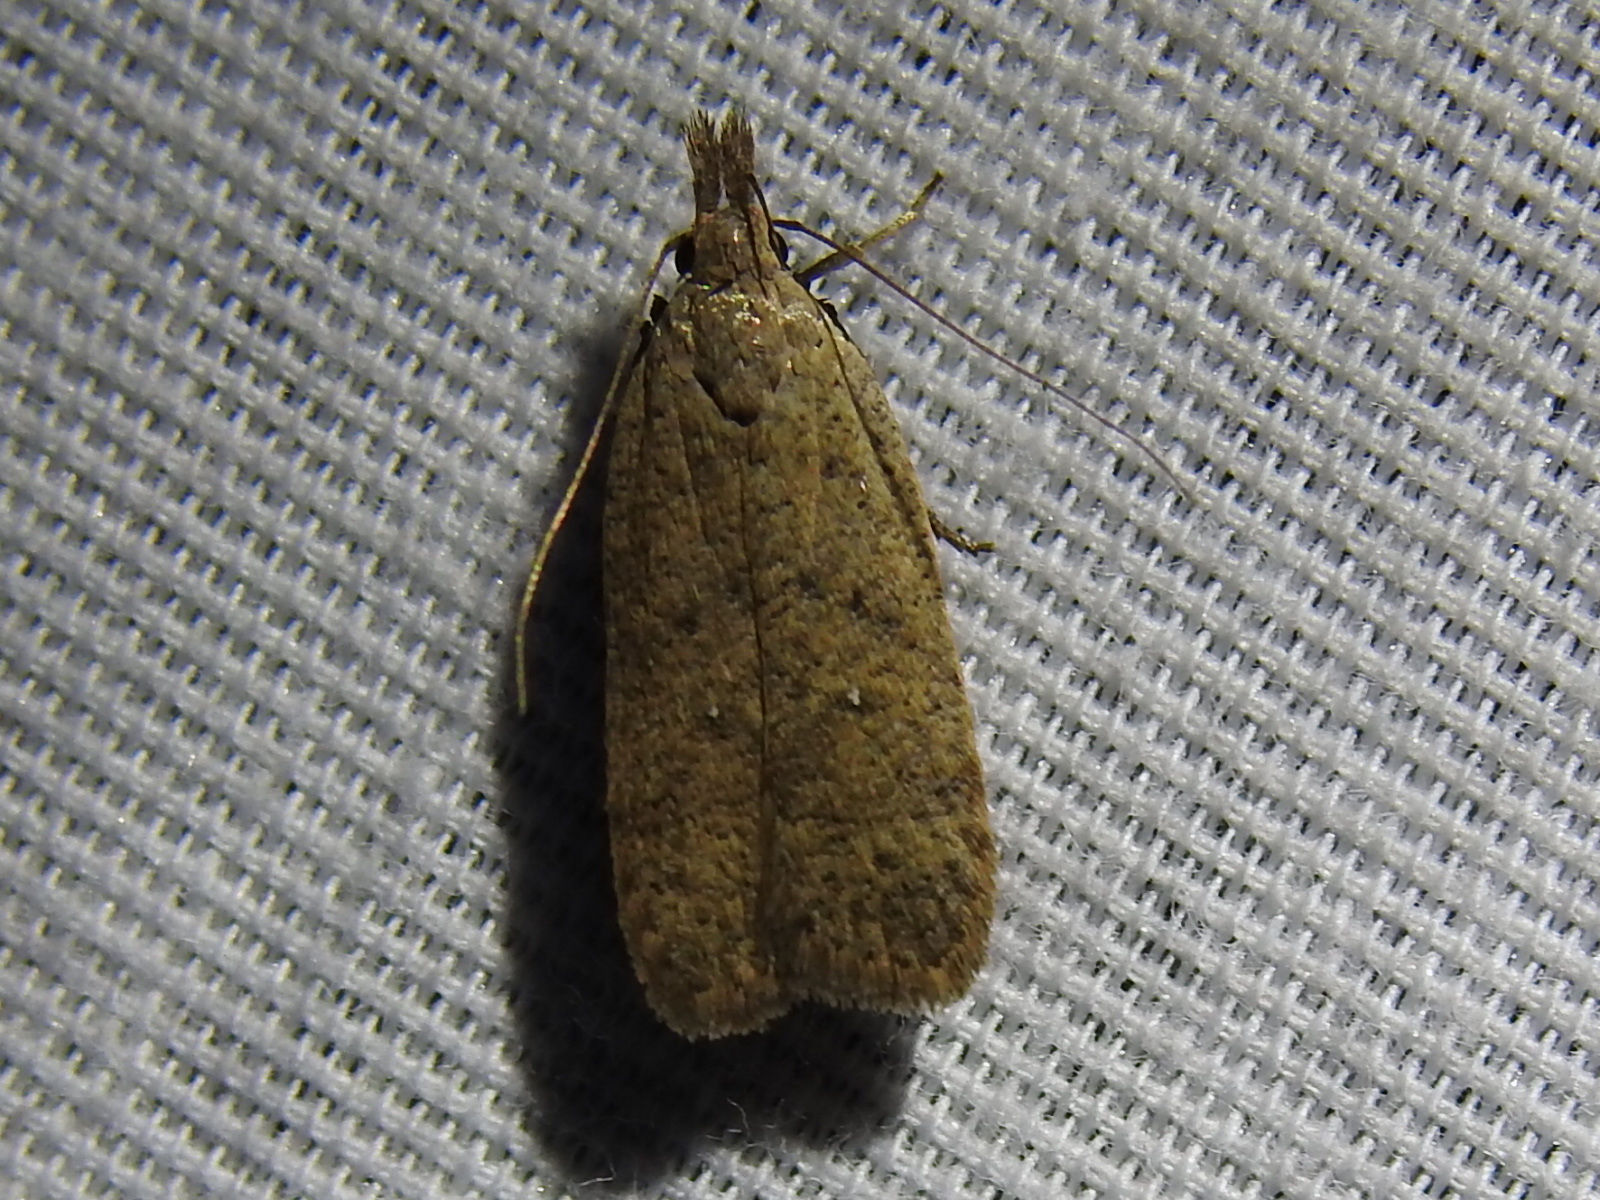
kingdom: Animalia
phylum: Arthropoda
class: Insecta
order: Lepidoptera
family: Gelechiidae
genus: Dichomeris
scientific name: Dichomeris georgiella
